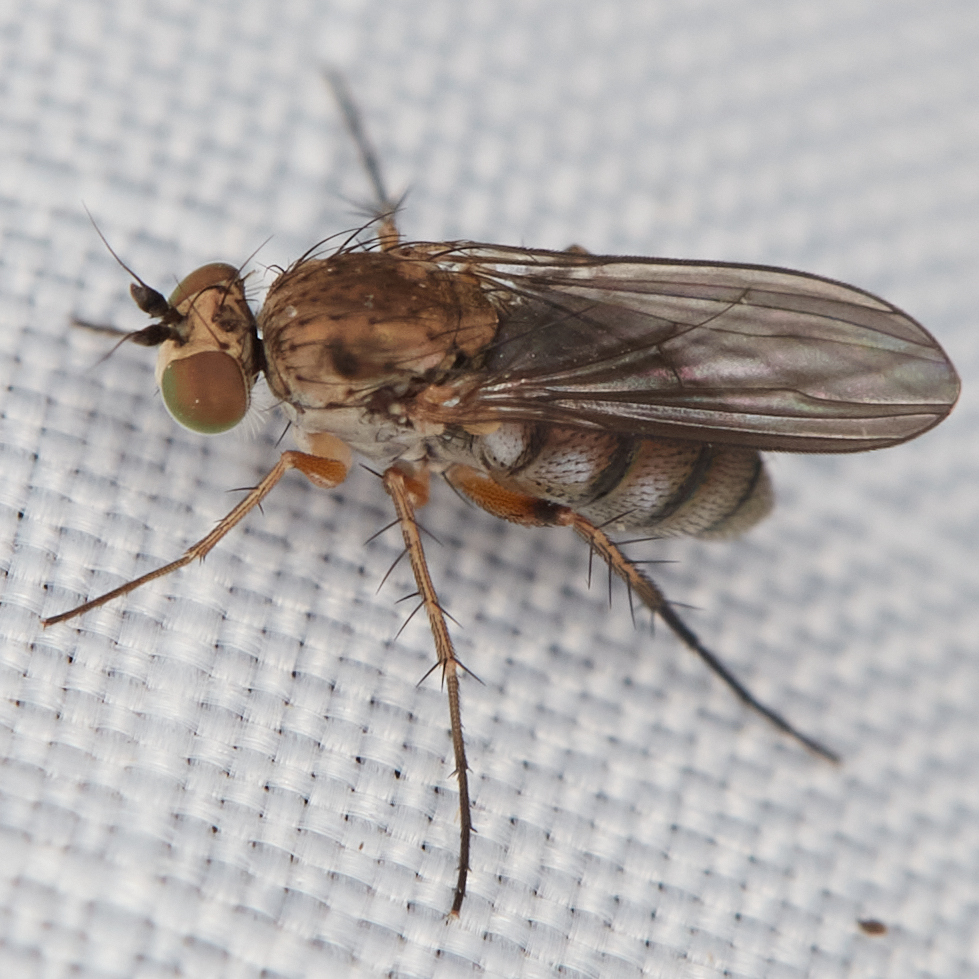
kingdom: Animalia
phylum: Arthropoda
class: Insecta
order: Diptera
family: Dolichopodidae
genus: Hercostomus
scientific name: Hercostomus impudicus
